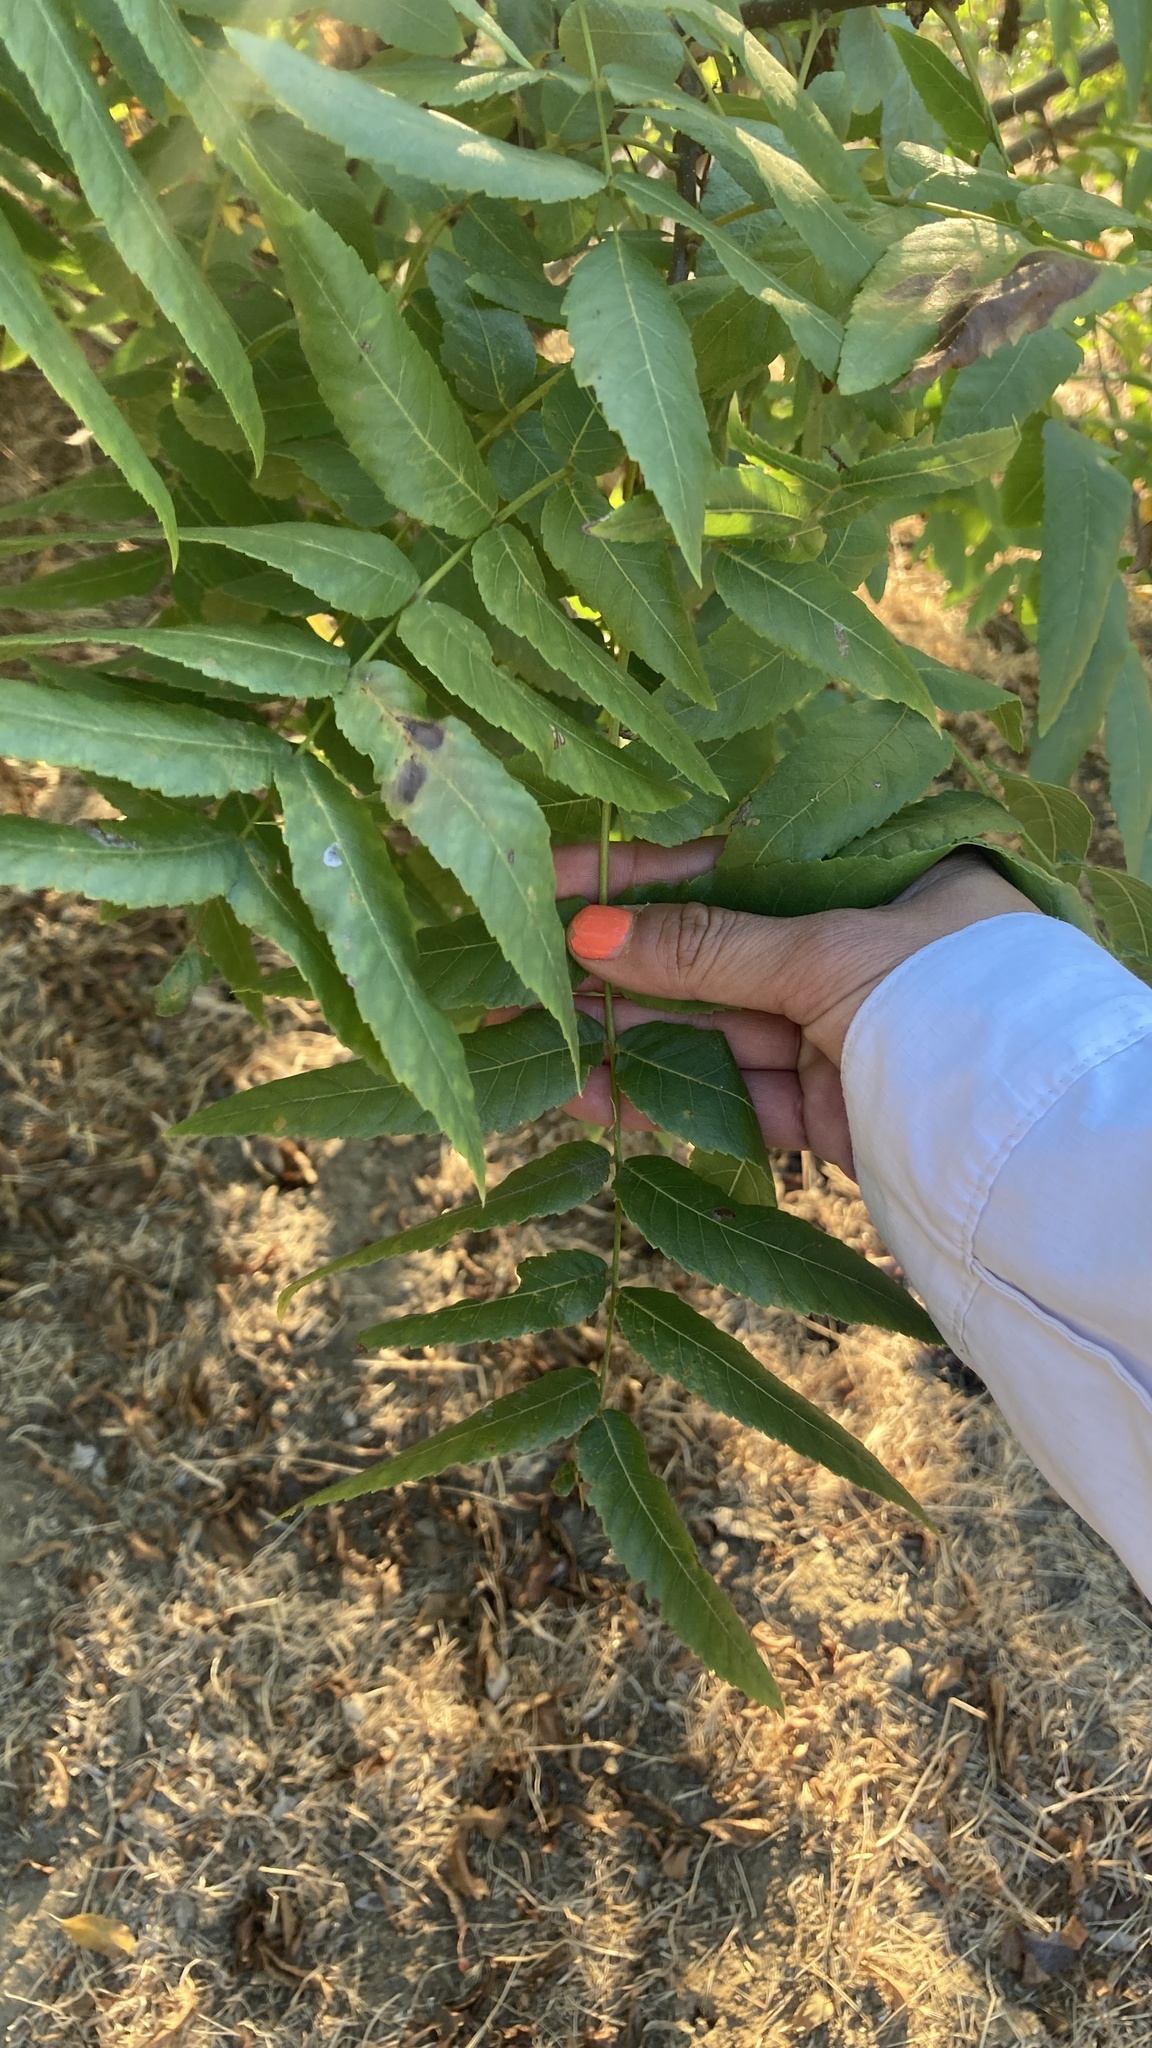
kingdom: Plantae
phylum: Tracheophyta
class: Magnoliopsida
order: Fagales
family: Juglandaceae
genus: Juglans
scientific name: Juglans californica
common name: Southern california black walnut
